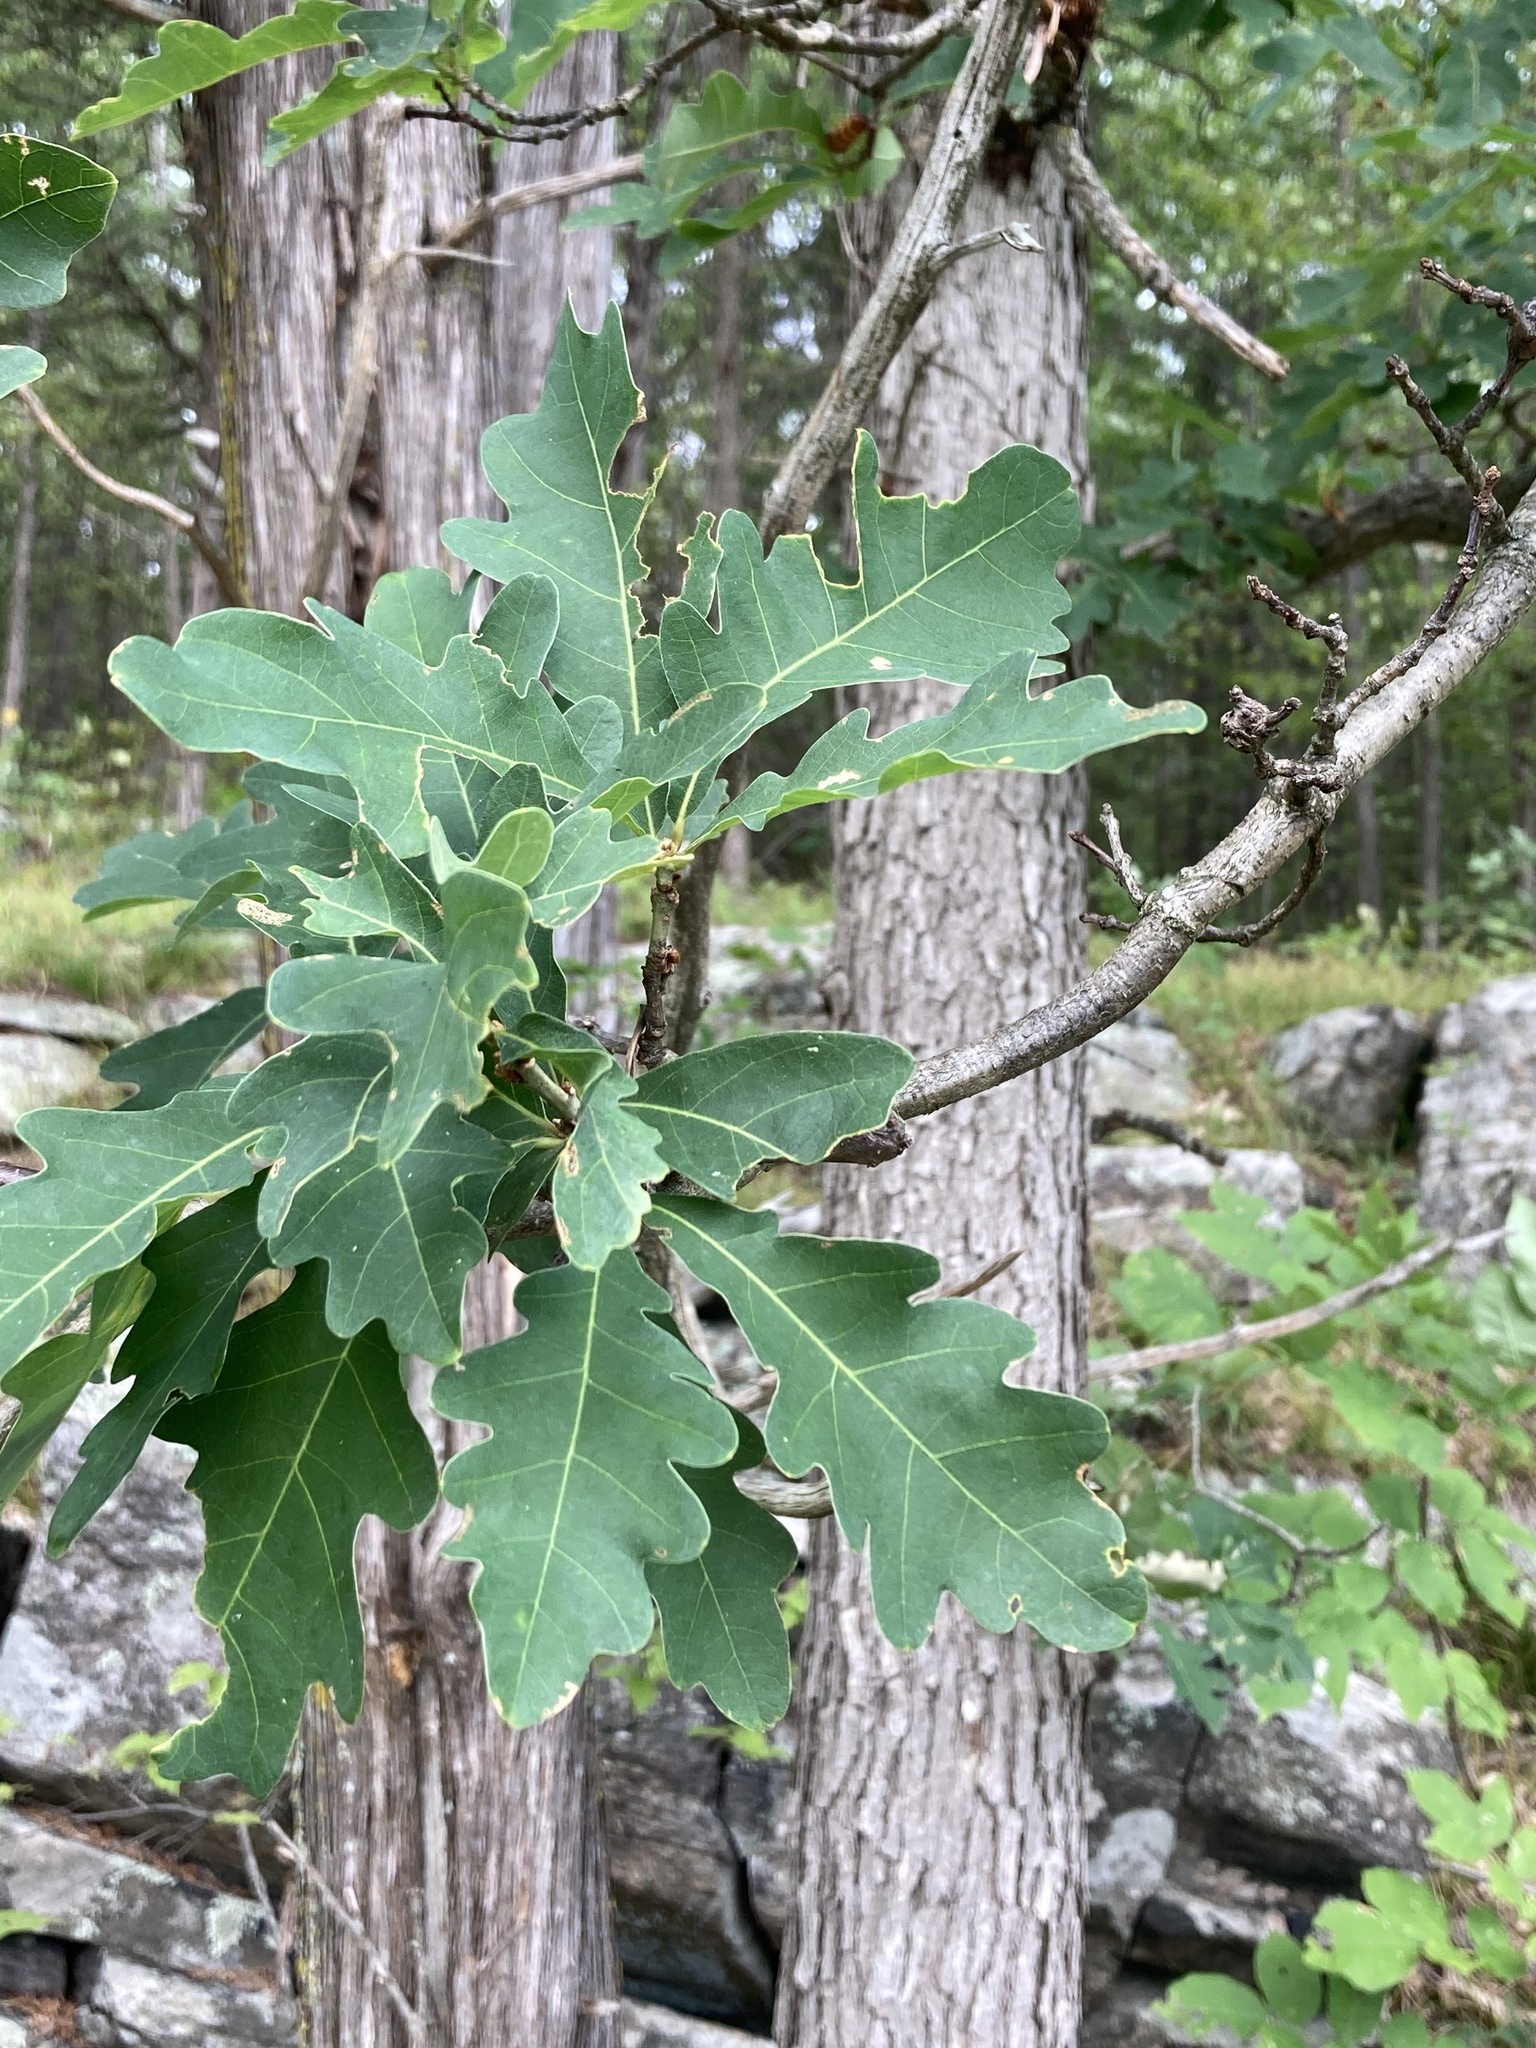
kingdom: Plantae
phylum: Tracheophyta
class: Magnoliopsida
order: Fagales
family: Fagaceae
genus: Quercus
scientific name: Quercus alba
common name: White oak
